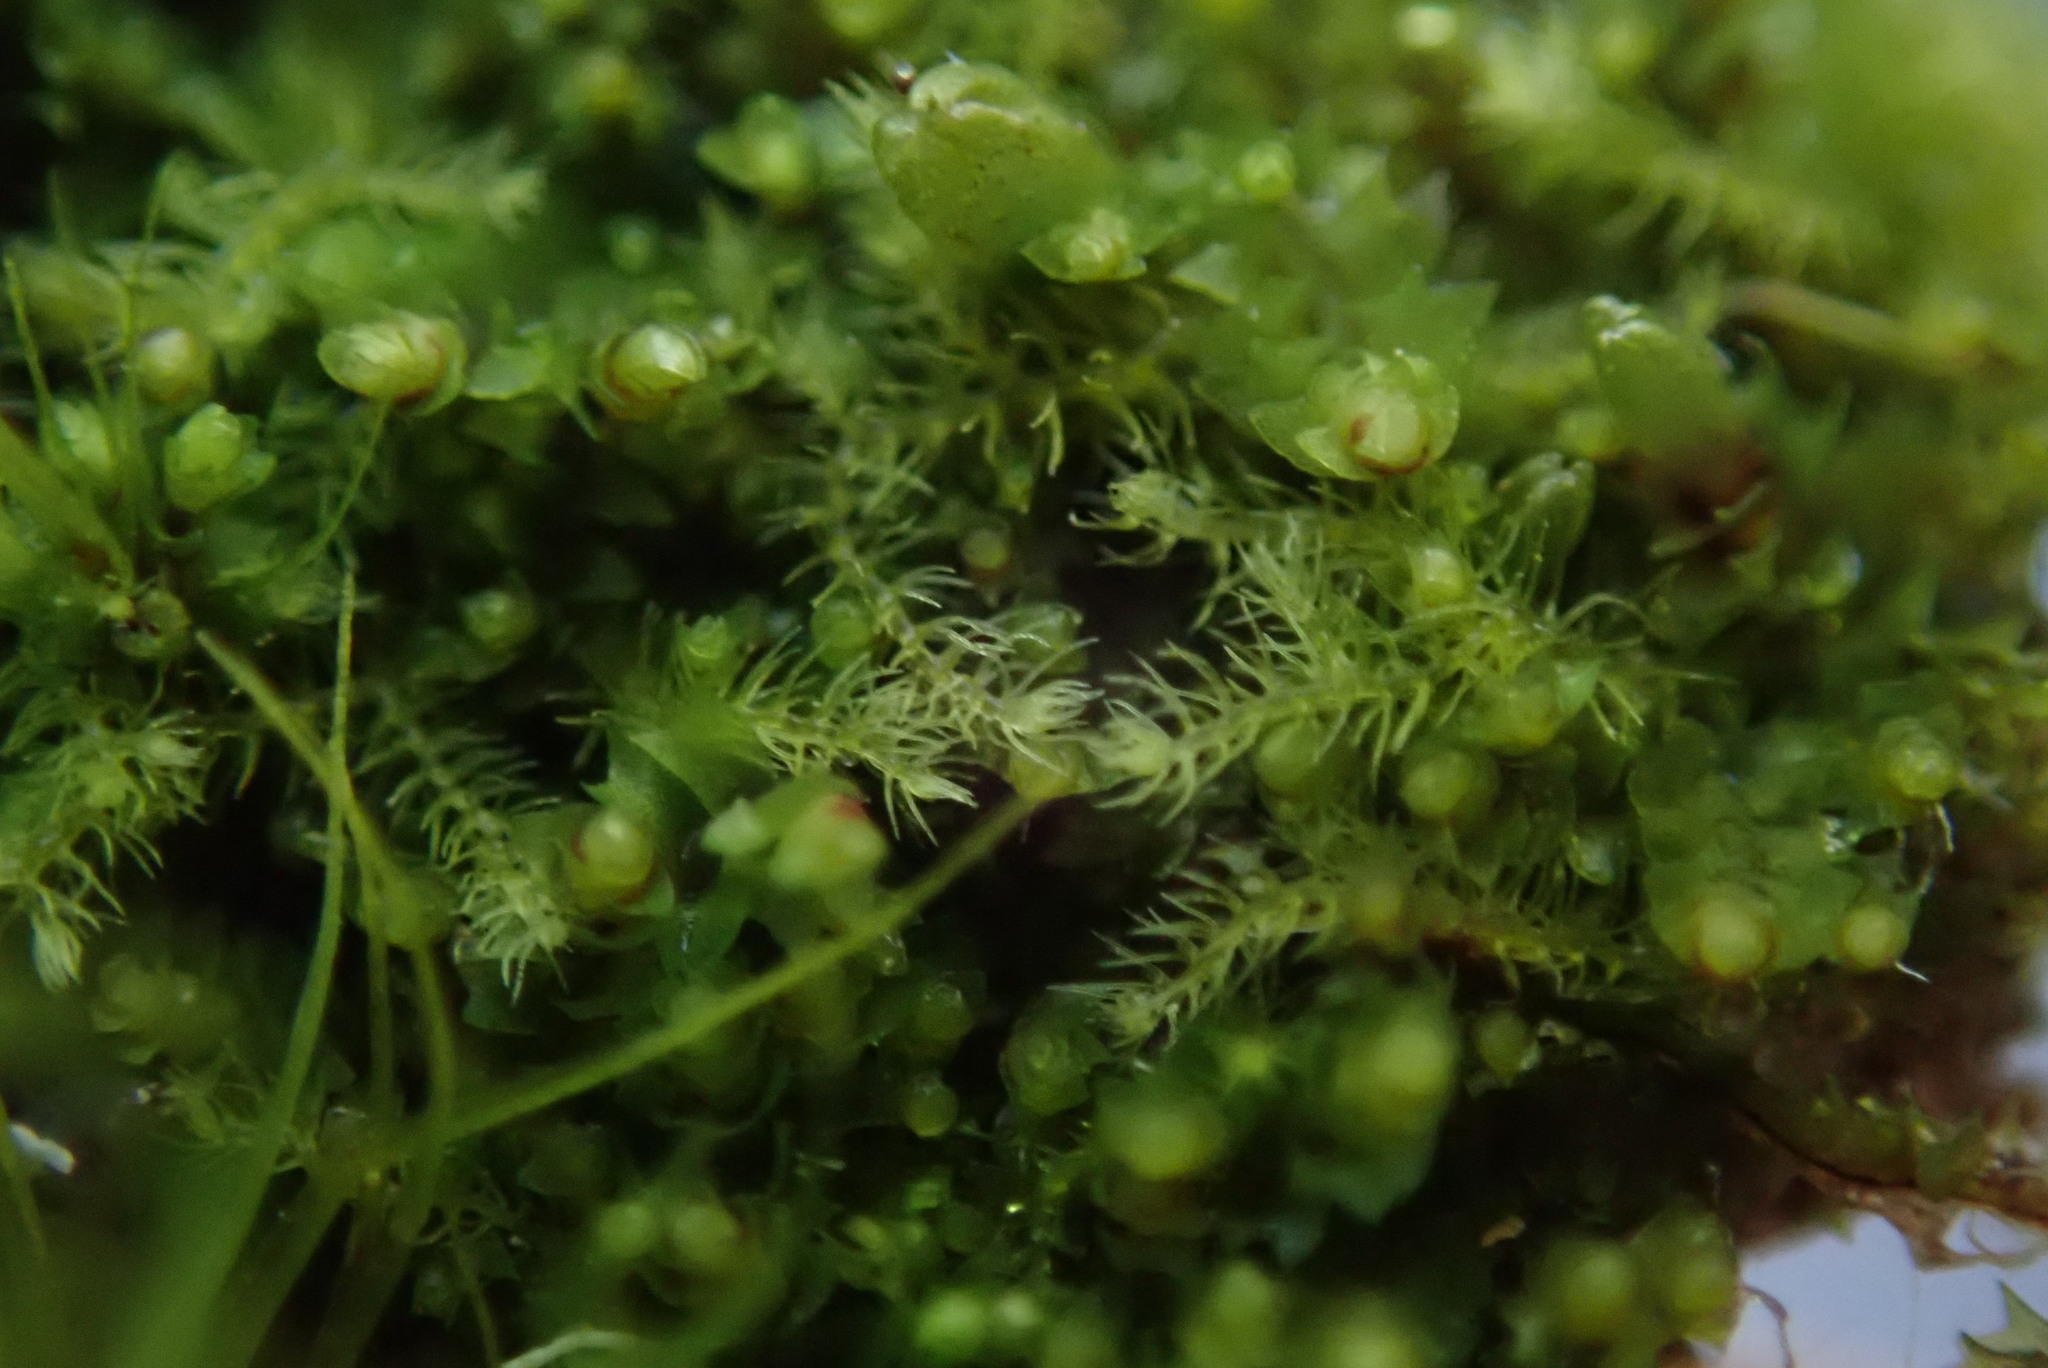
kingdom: Plantae
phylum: Marchantiophyta
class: Jungermanniopsida
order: Jungermanniales
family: Blepharostomataceae
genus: Blepharostoma
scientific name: Blepharostoma trichophyllum
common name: Hairy threadwort
